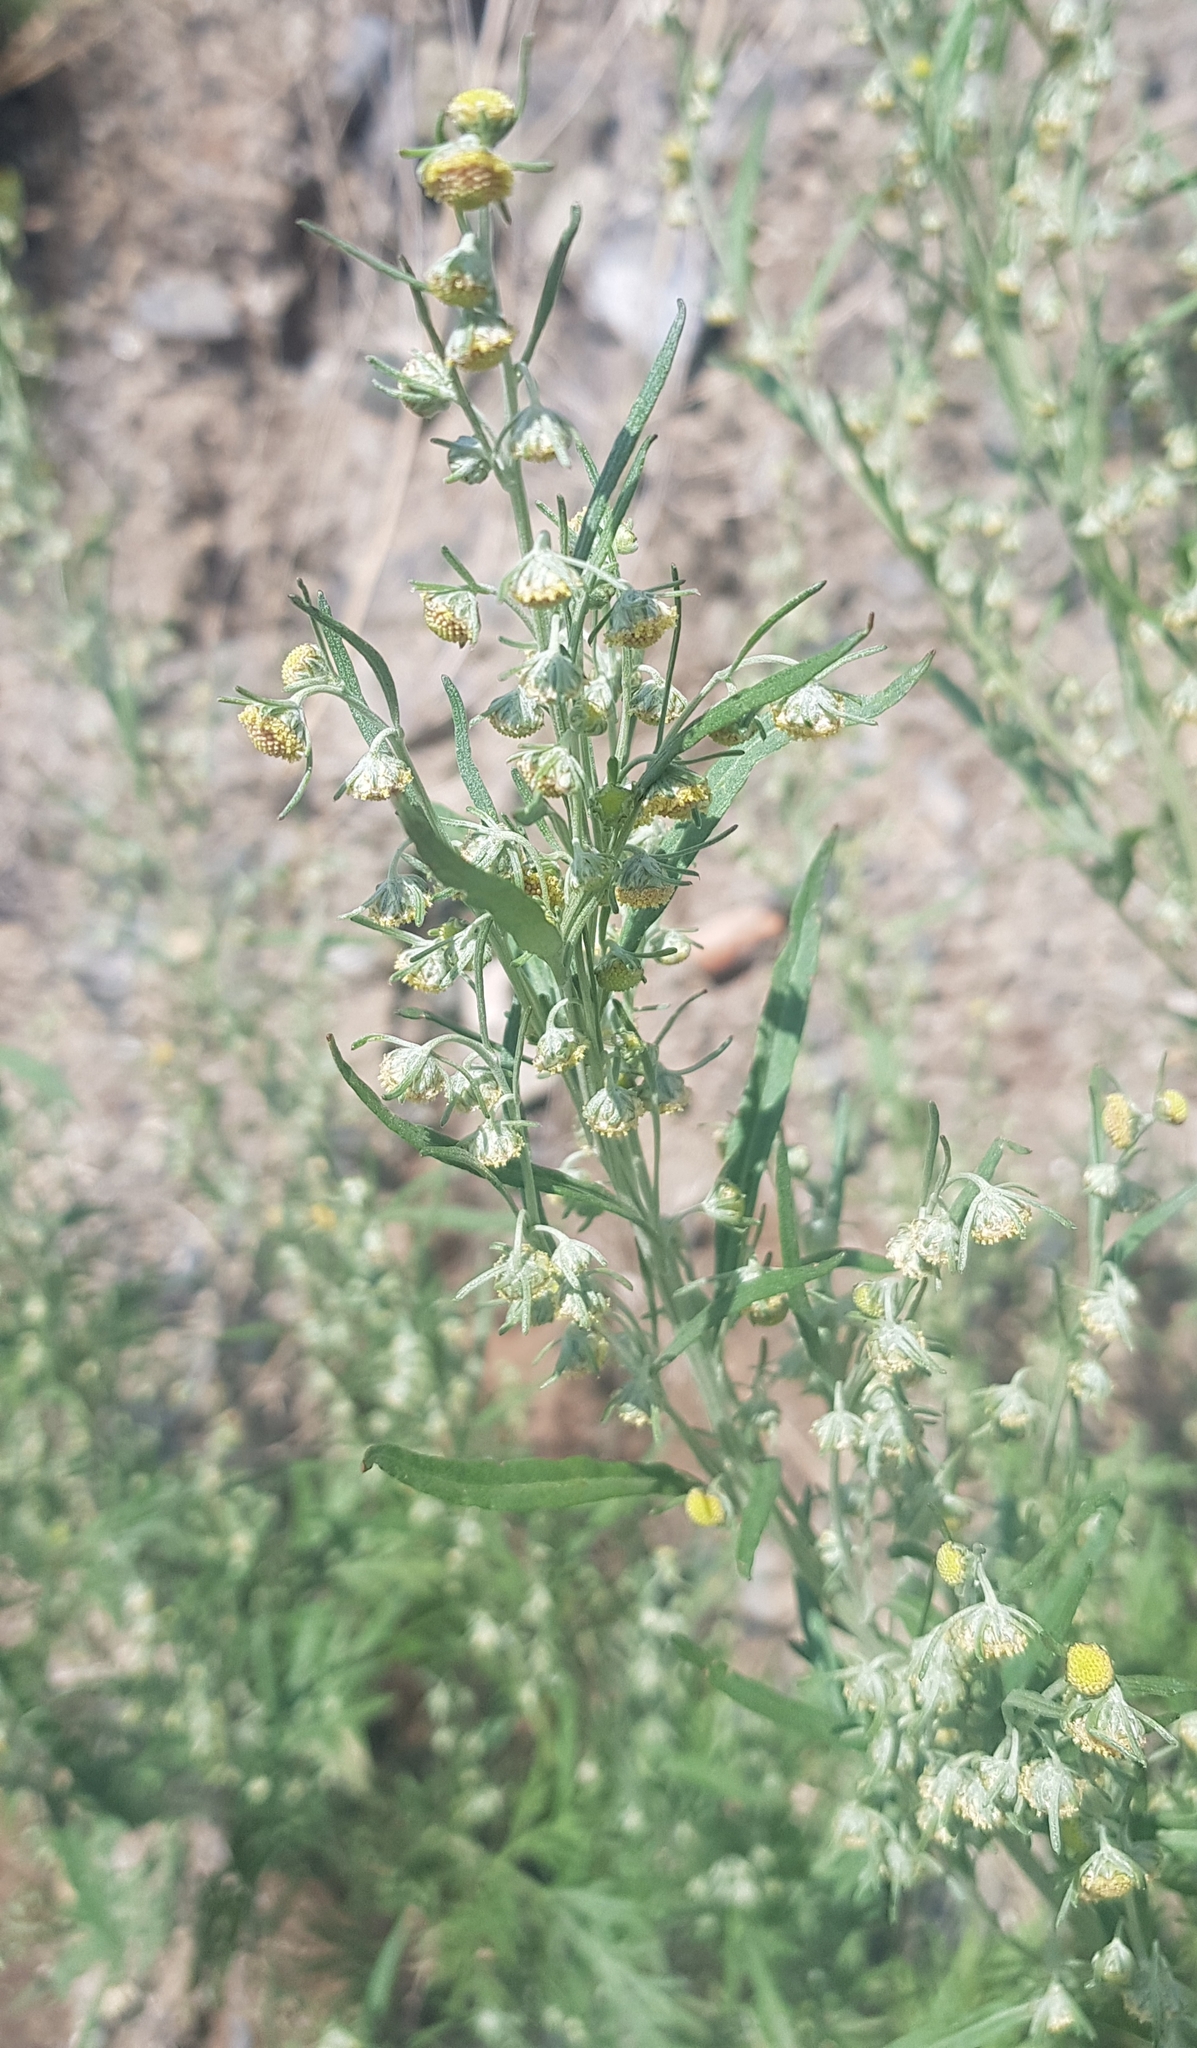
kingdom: Plantae
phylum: Tracheophyta
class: Magnoliopsida
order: Asterales
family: Asteraceae
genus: Artemisia
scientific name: Artemisia sieversiana
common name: Sieversian wormwood
